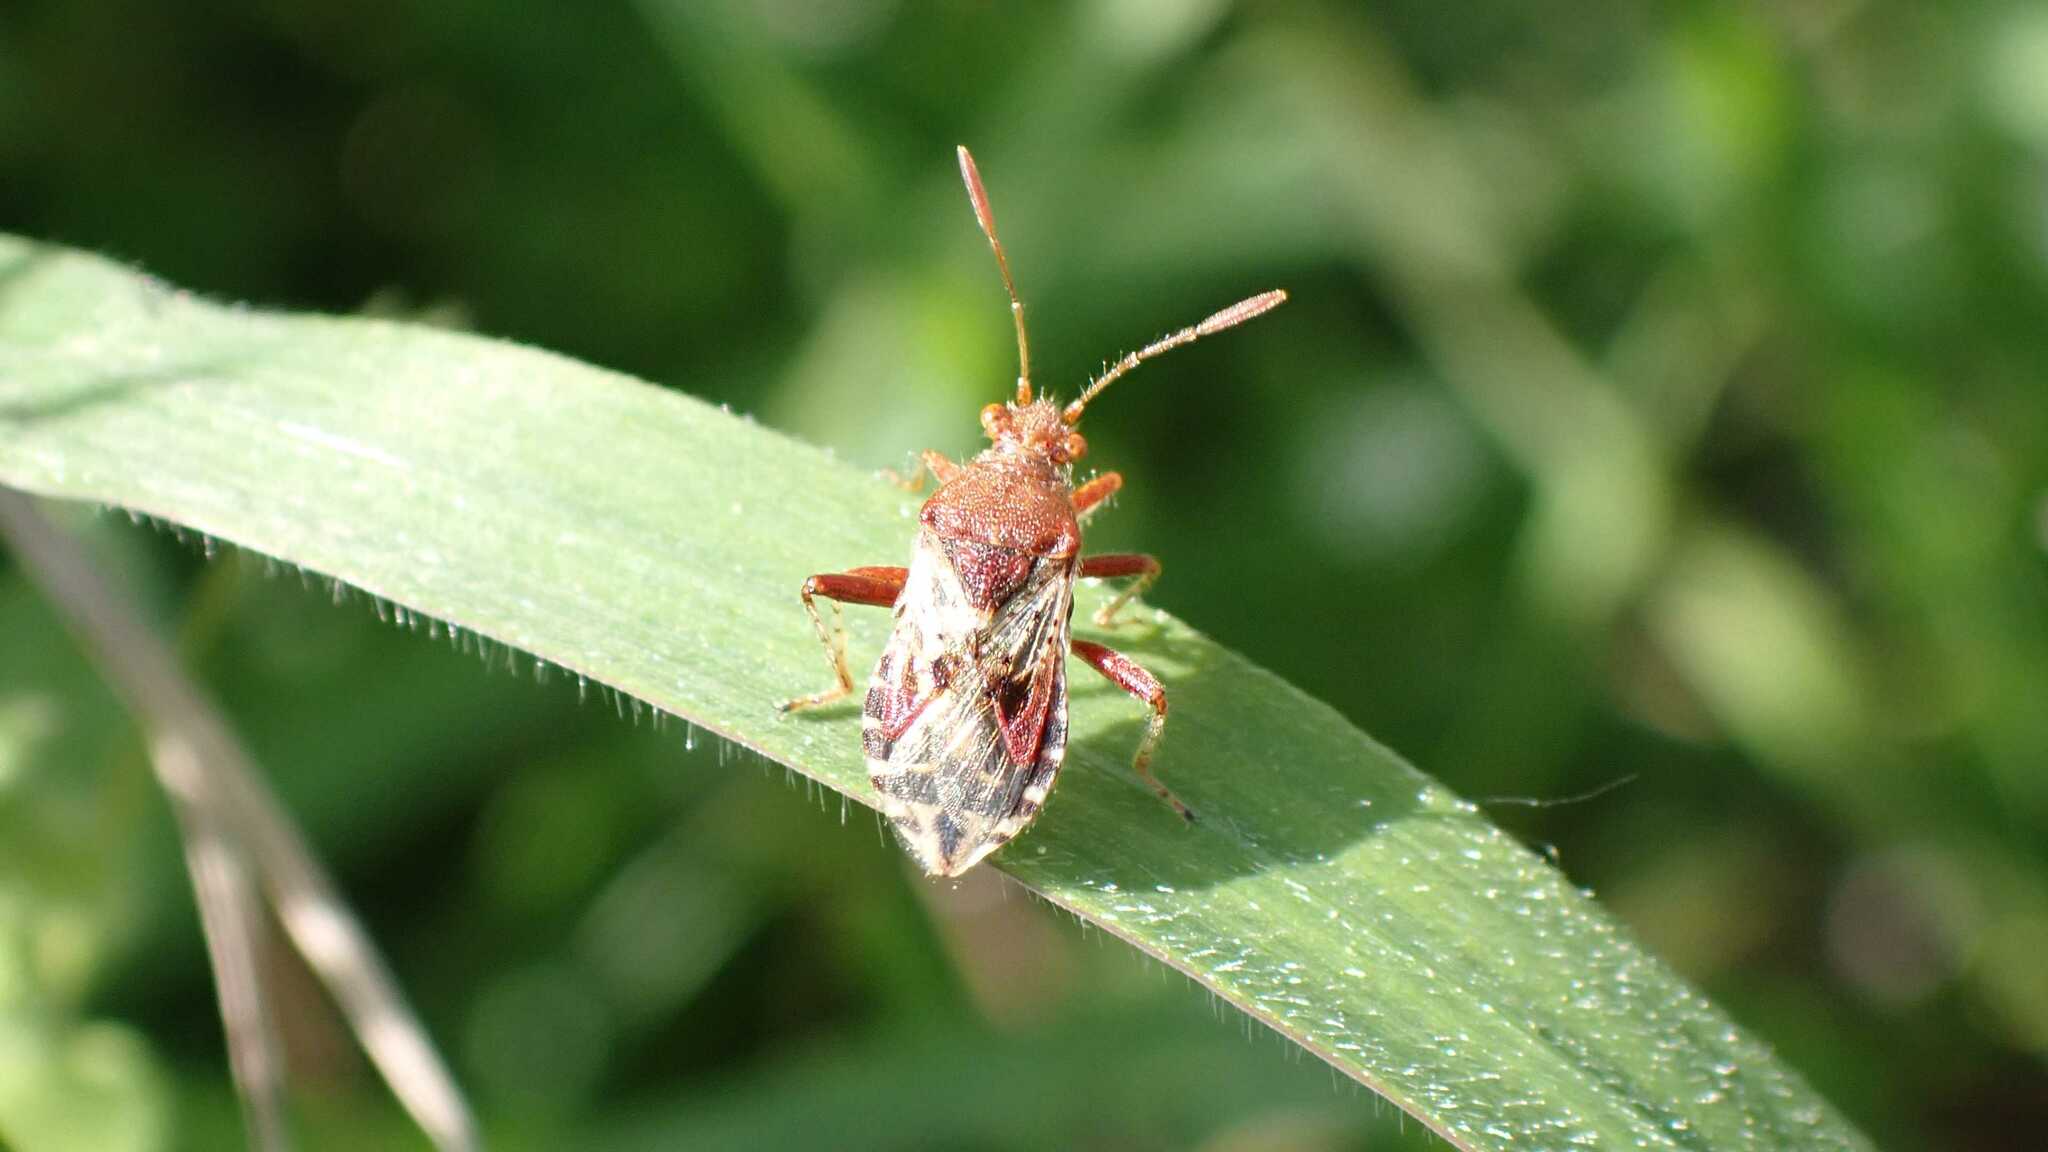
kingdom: Animalia
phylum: Arthropoda
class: Insecta
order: Hemiptera
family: Rhopalidae
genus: Rhopalus
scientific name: Rhopalus subrufus
